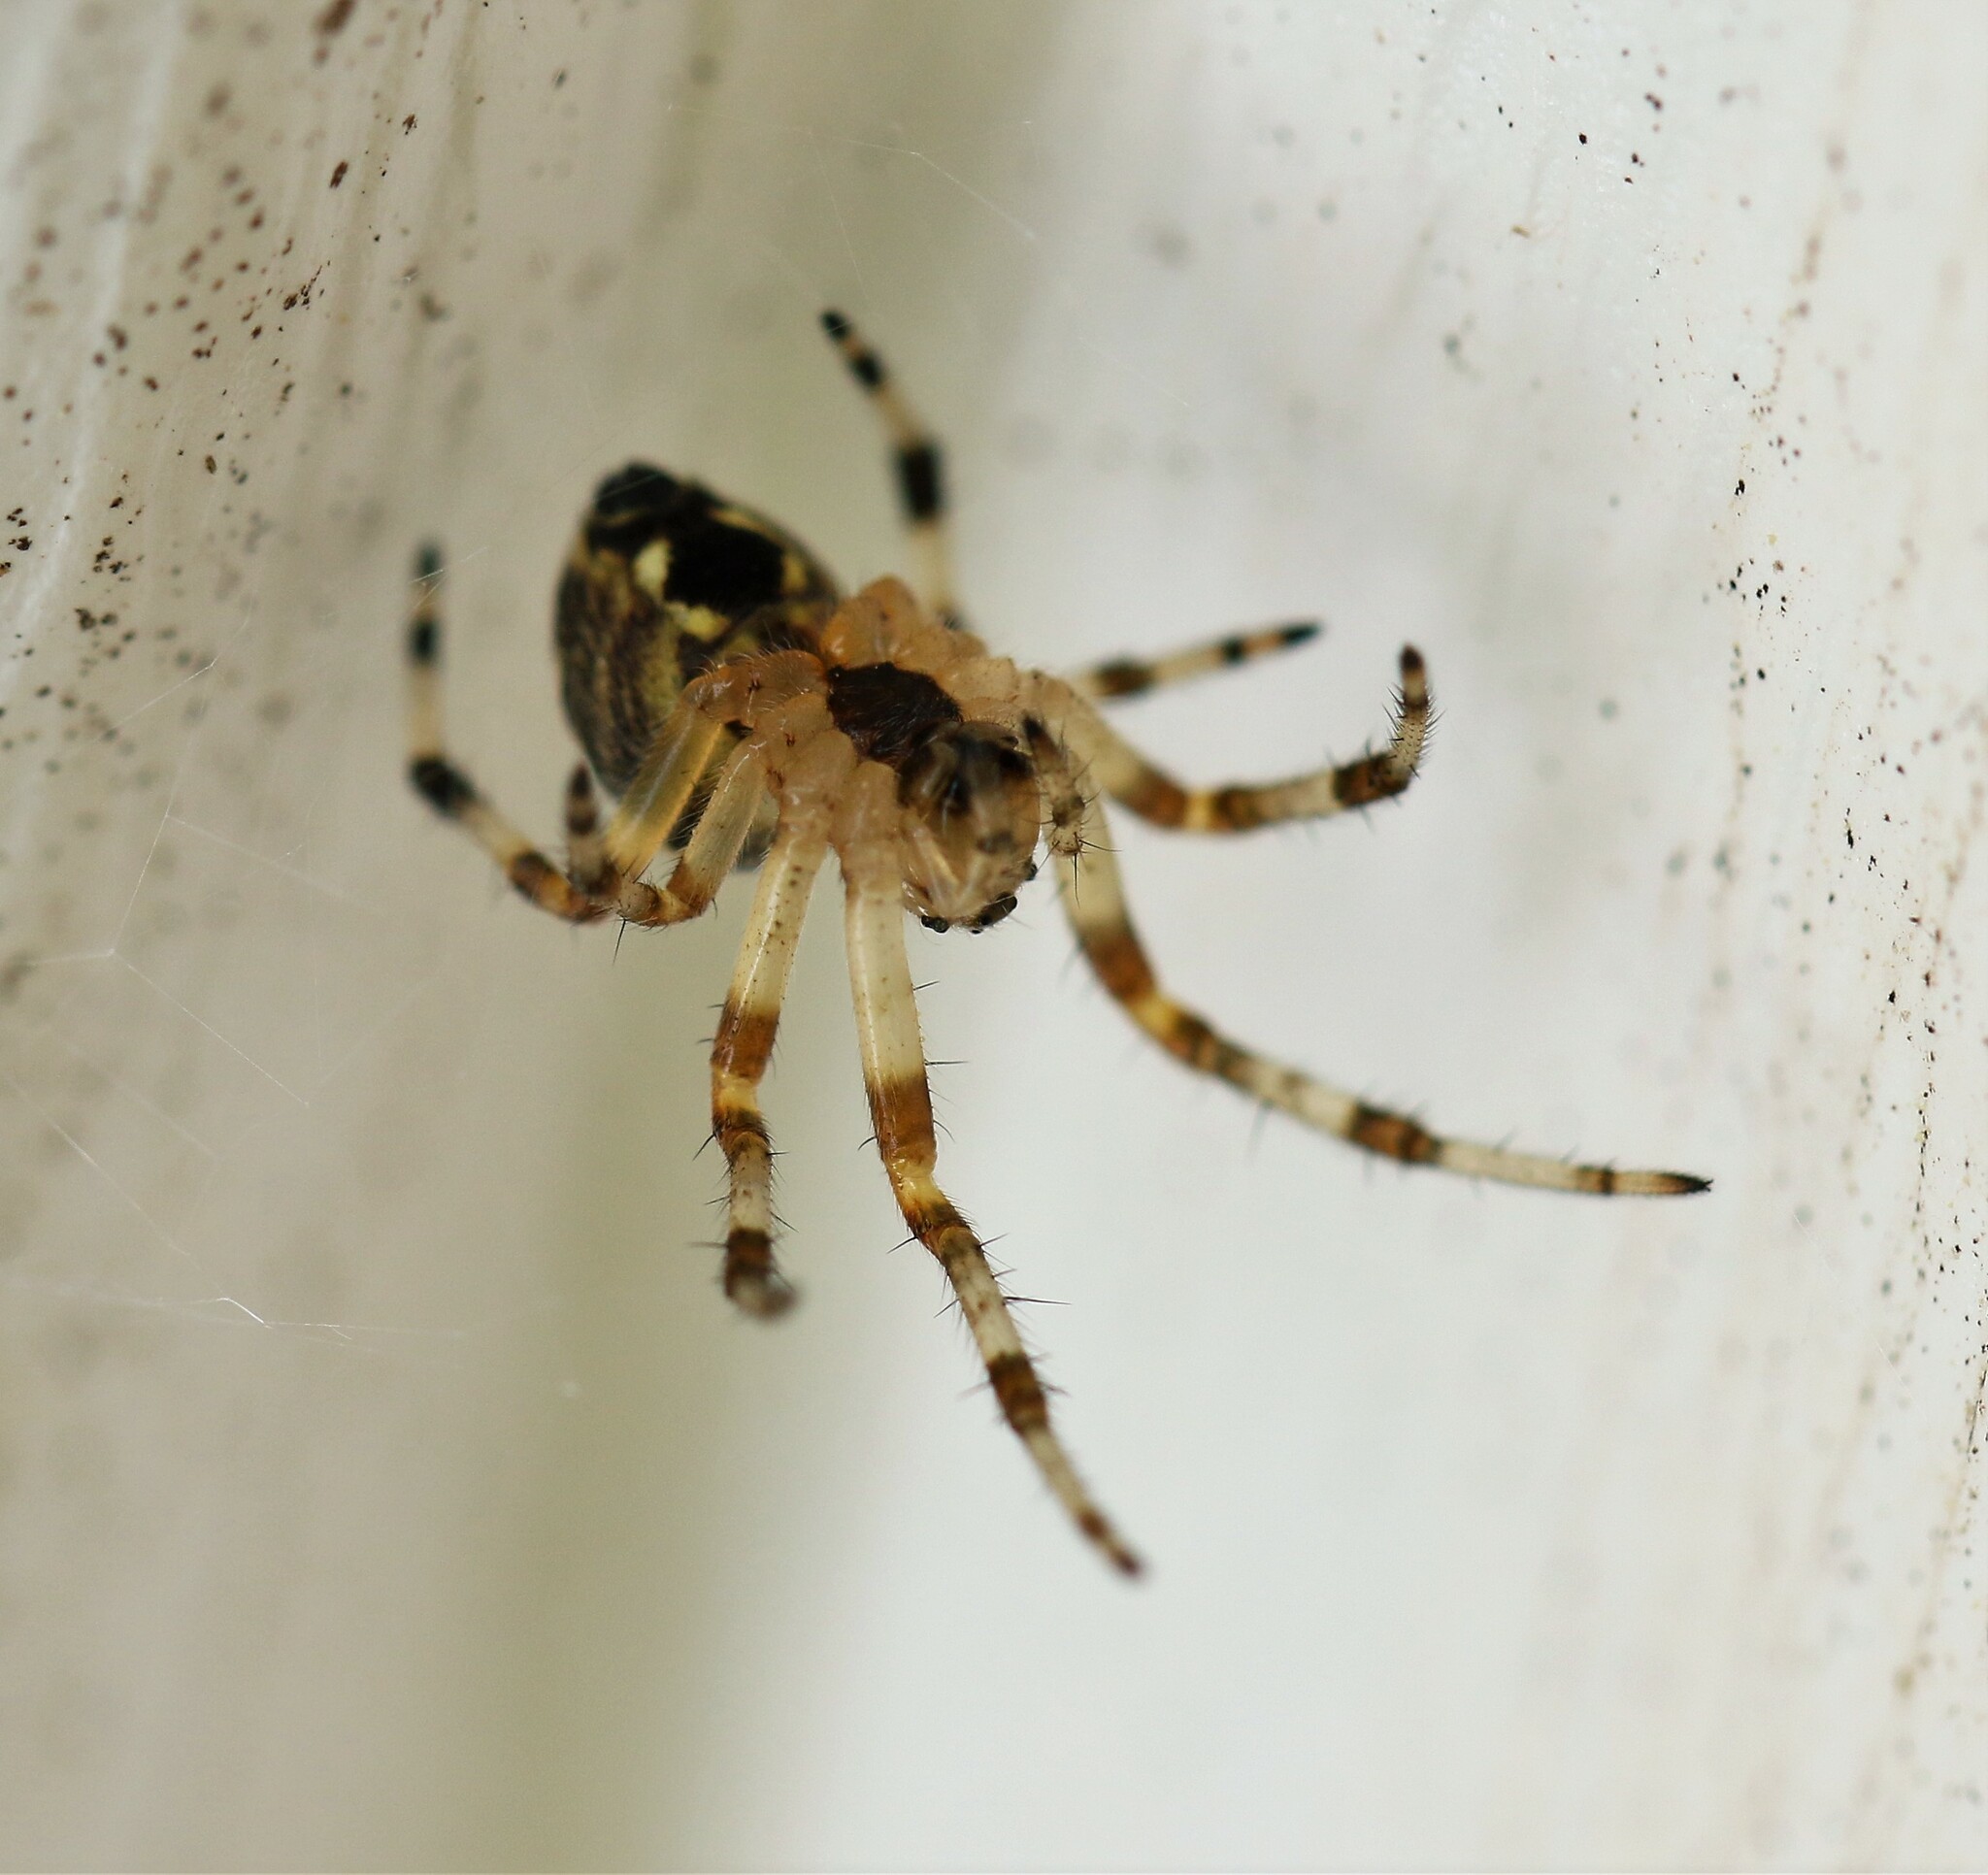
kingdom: Animalia
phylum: Arthropoda
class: Arachnida
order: Araneae
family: Araneidae
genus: Araneus
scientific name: Araneus marmoreus
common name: Marbled orbweaver
